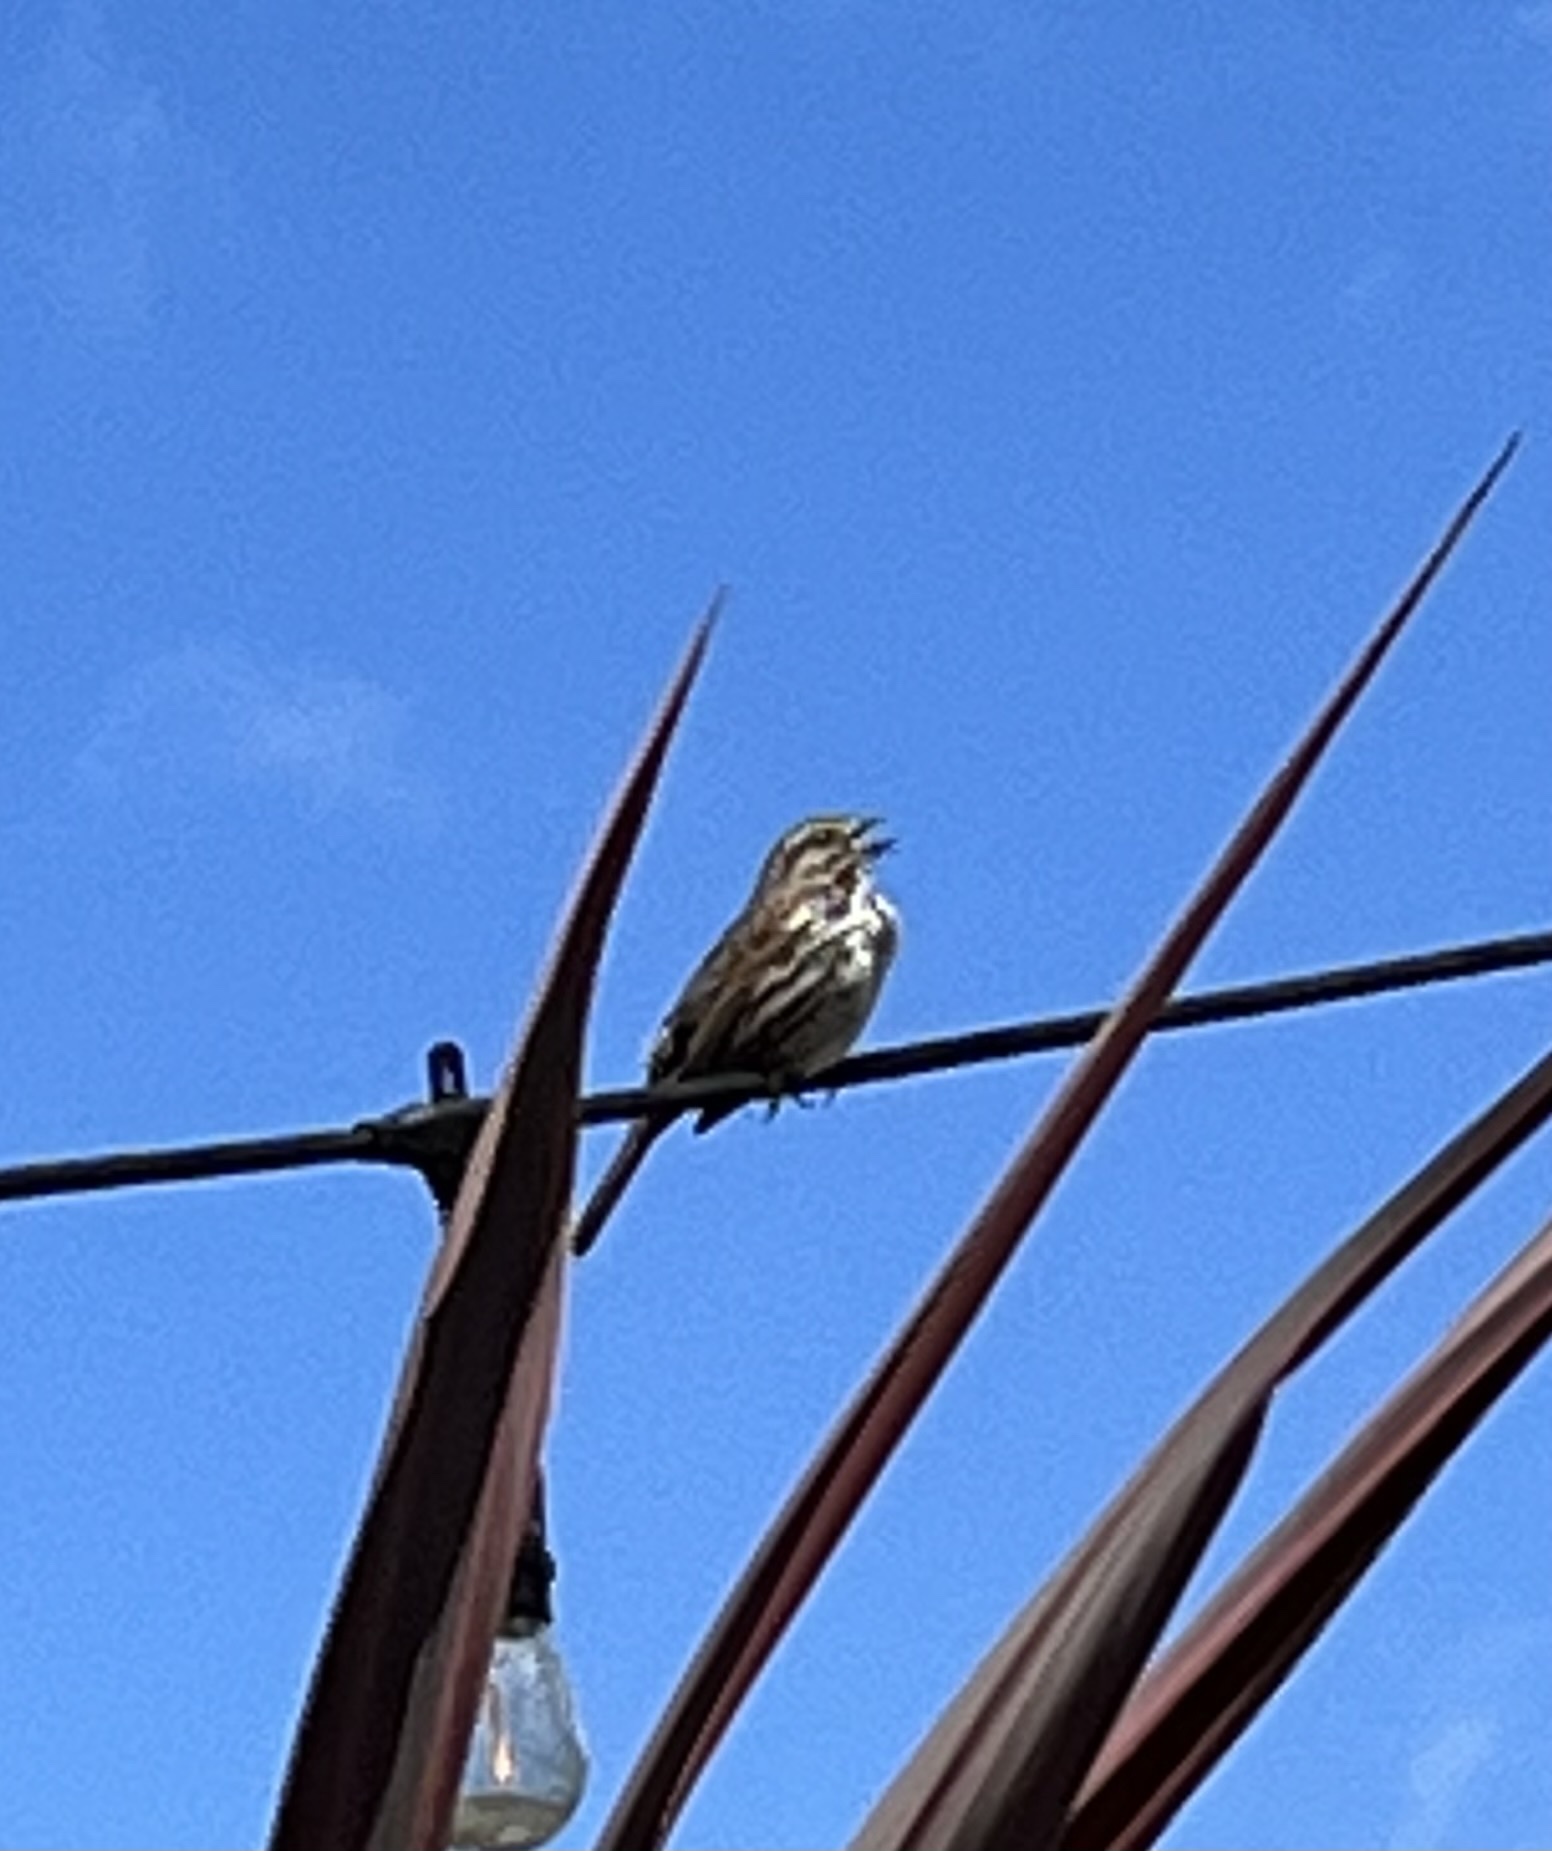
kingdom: Animalia
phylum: Chordata
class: Aves
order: Passeriformes
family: Passerellidae
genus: Melospiza
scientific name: Melospiza melodia
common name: Song sparrow
